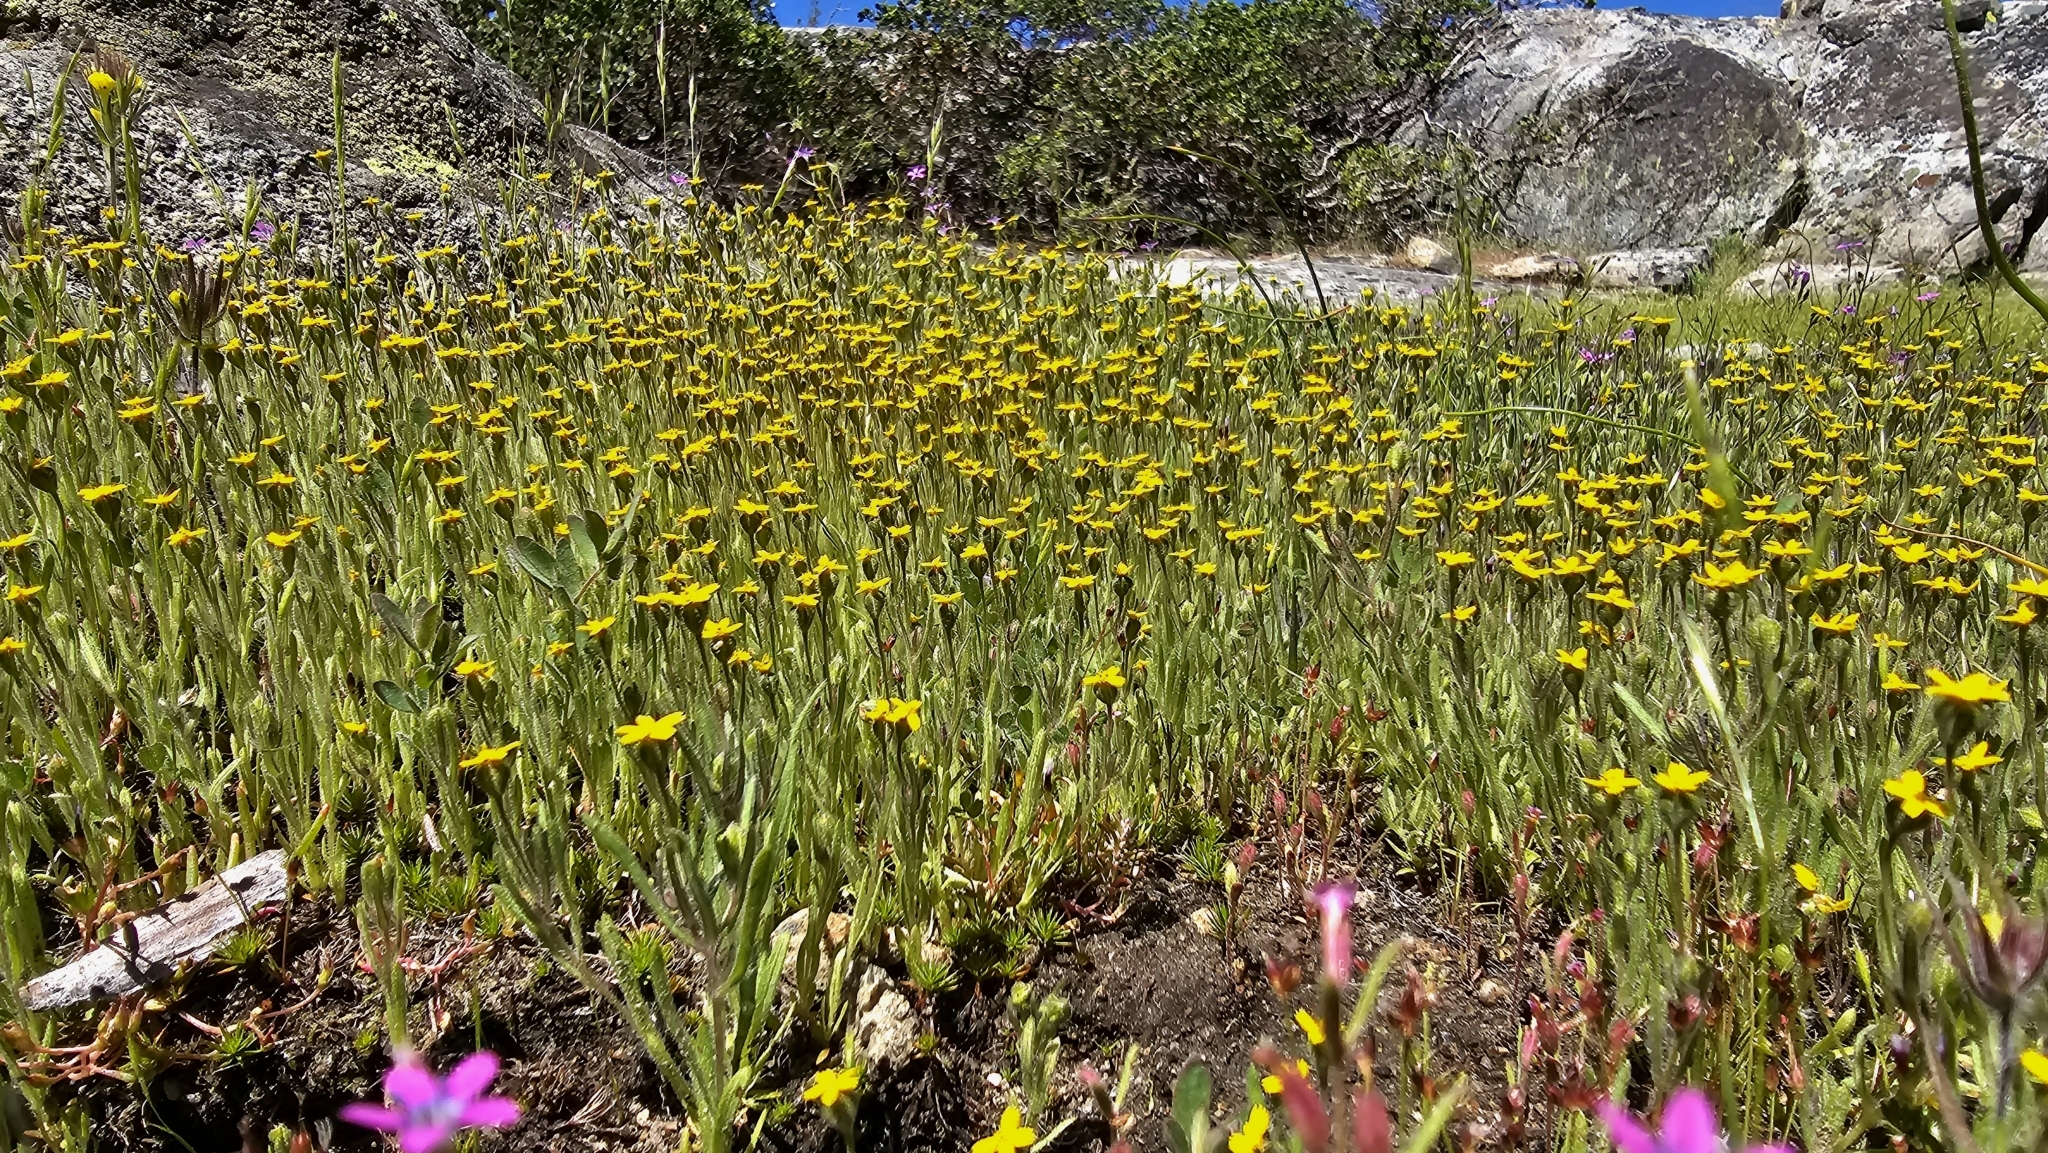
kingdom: Plantae
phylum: Tracheophyta
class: Magnoliopsida
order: Asterales
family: Asteraceae
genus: Jensia
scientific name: Jensia yosemitana
